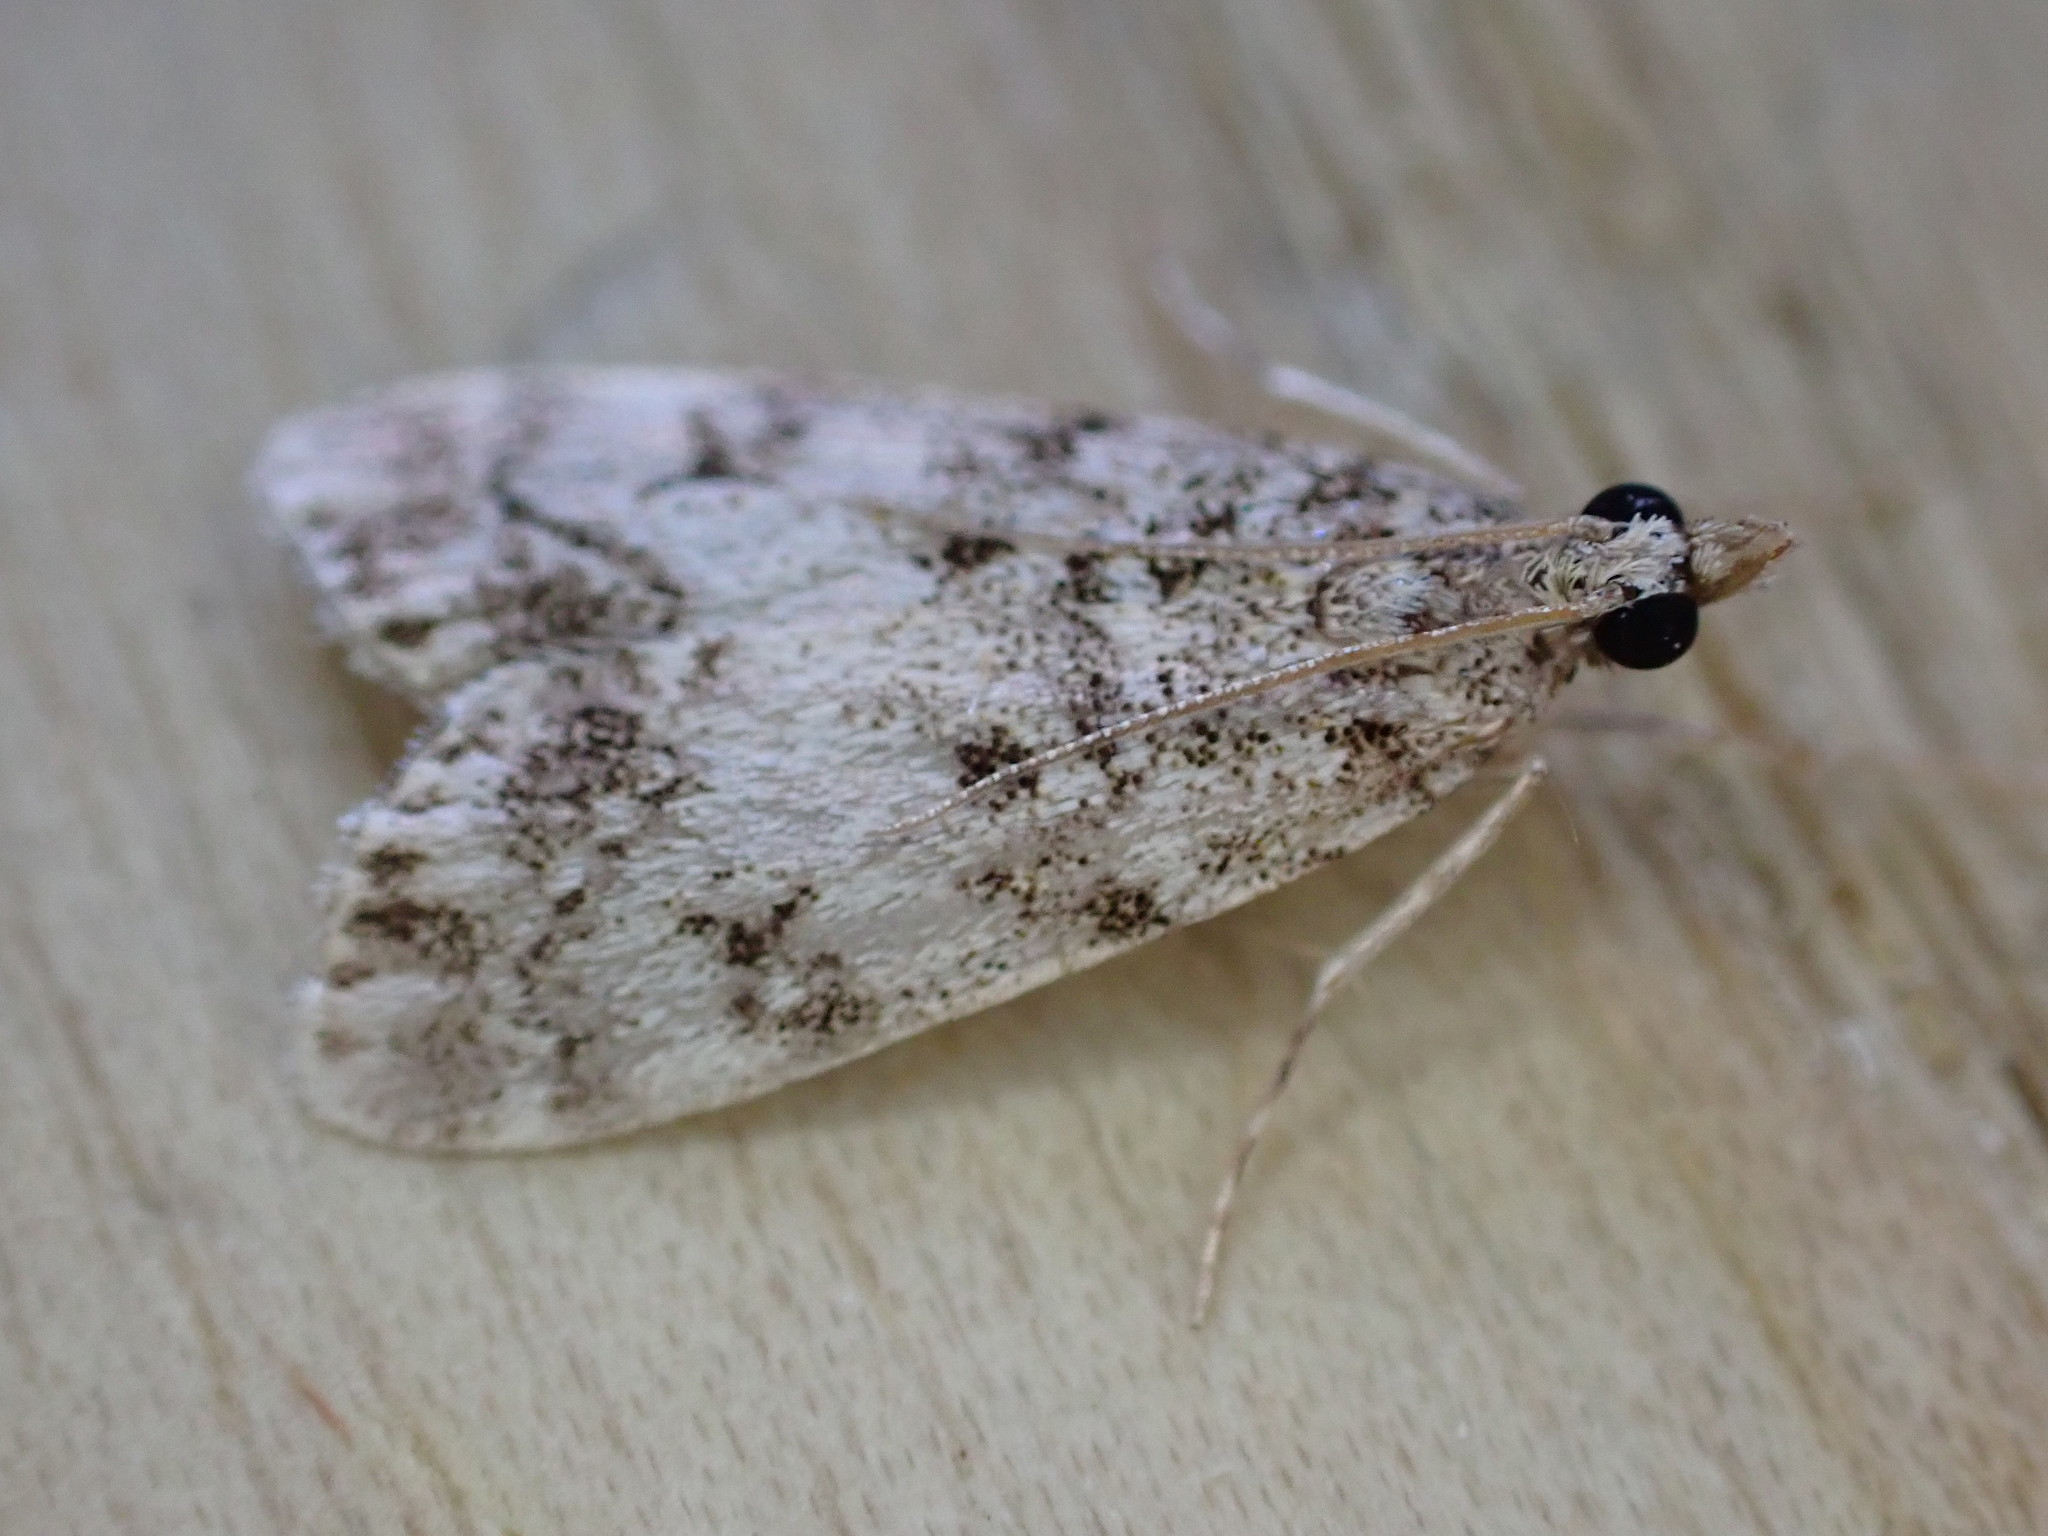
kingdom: Animalia
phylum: Arthropoda
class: Insecta
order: Lepidoptera
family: Crambidae
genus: Eudonia
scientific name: Eudonia lacustrata
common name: Little grey
